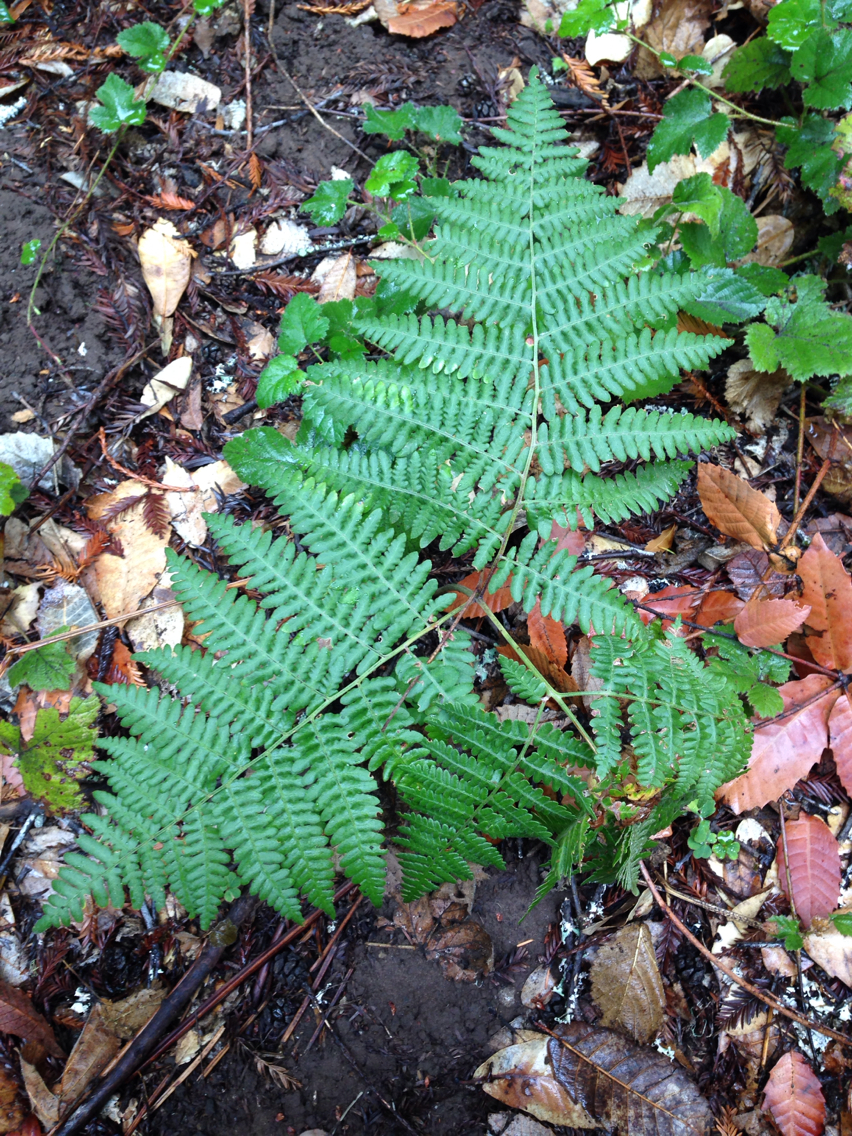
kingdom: Plantae
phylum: Tracheophyta
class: Polypodiopsida
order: Polypodiales
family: Dennstaedtiaceae
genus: Pteridium
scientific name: Pteridium aquilinum
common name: Bracken
